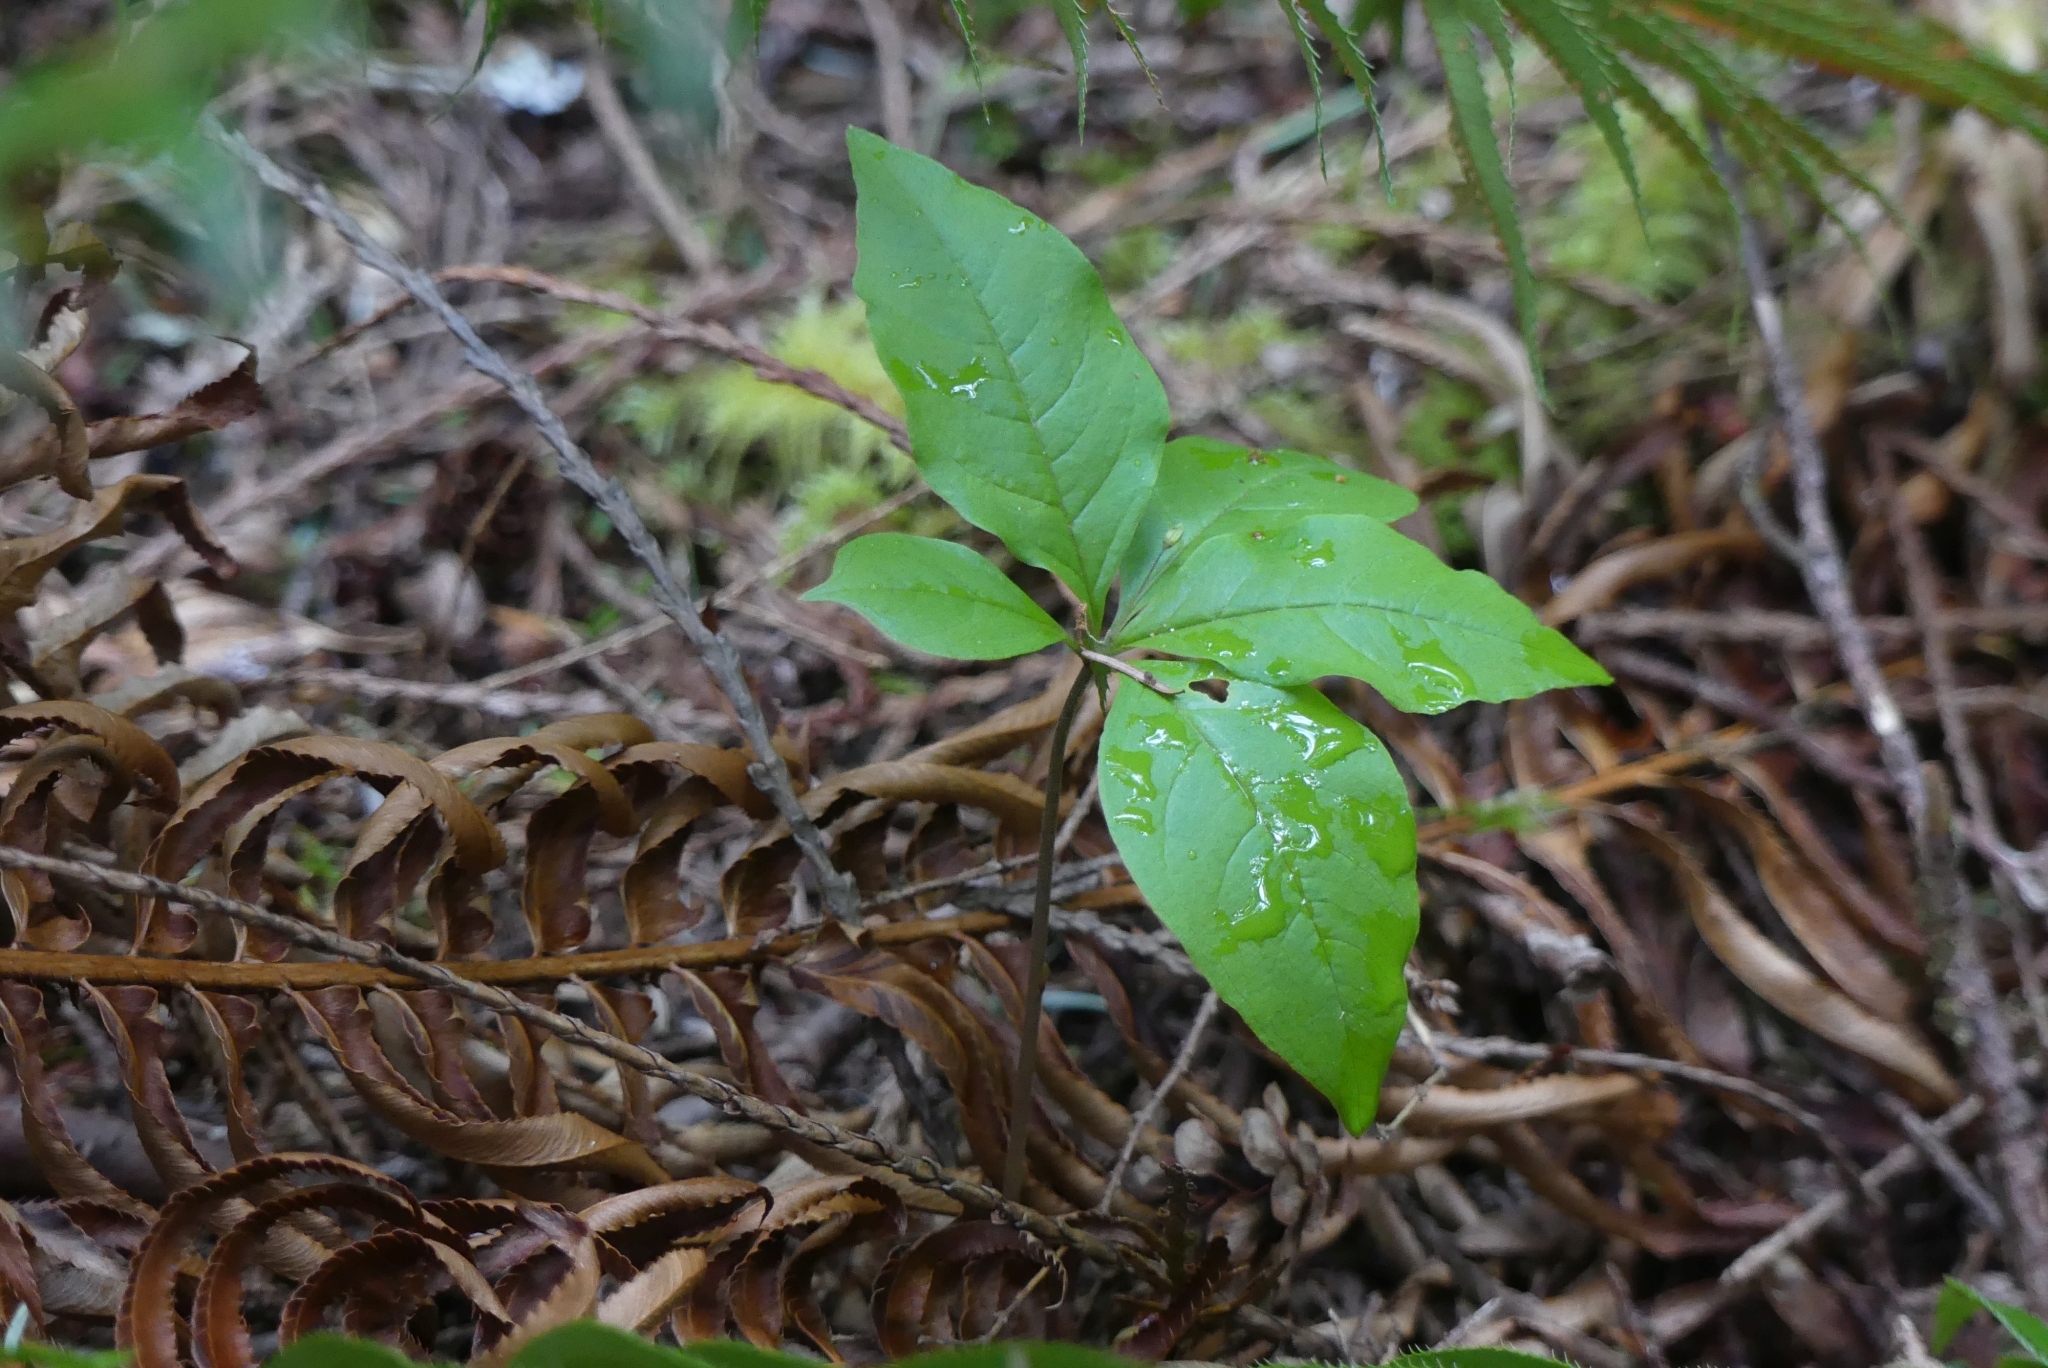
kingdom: Plantae
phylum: Tracheophyta
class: Magnoliopsida
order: Ericales
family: Primulaceae
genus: Lysimachia
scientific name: Lysimachia latifolia
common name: Pacific starflower
